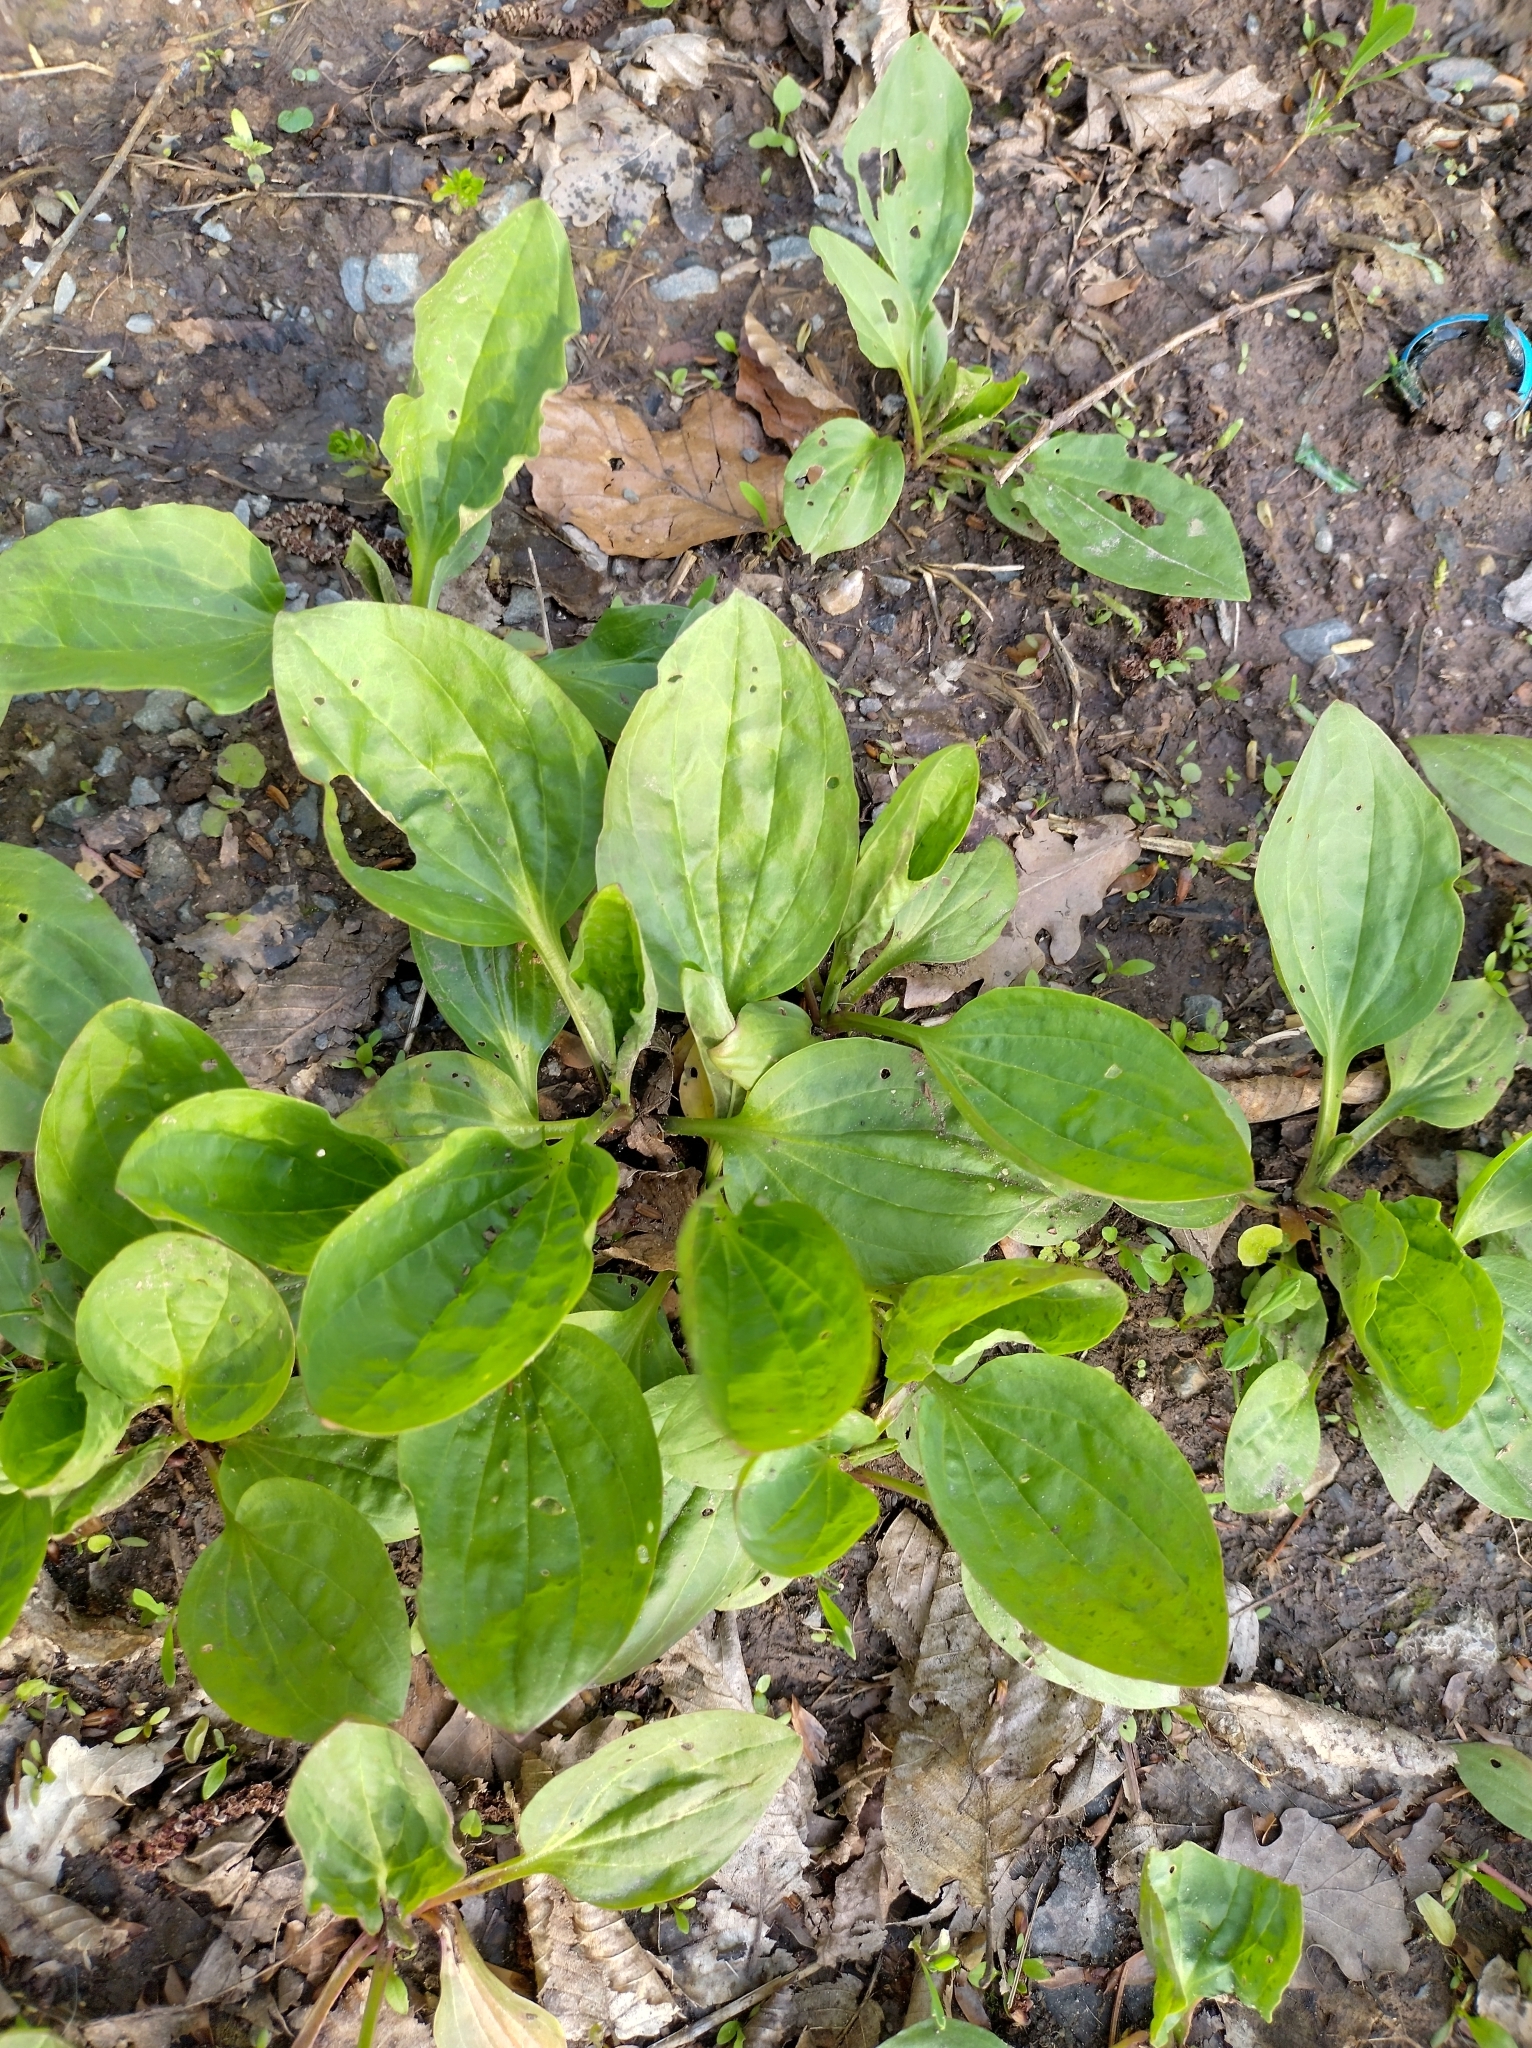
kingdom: Plantae
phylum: Tracheophyta
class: Magnoliopsida
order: Lamiales
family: Plantaginaceae
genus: Plantago
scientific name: Plantago major
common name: Common plantain
